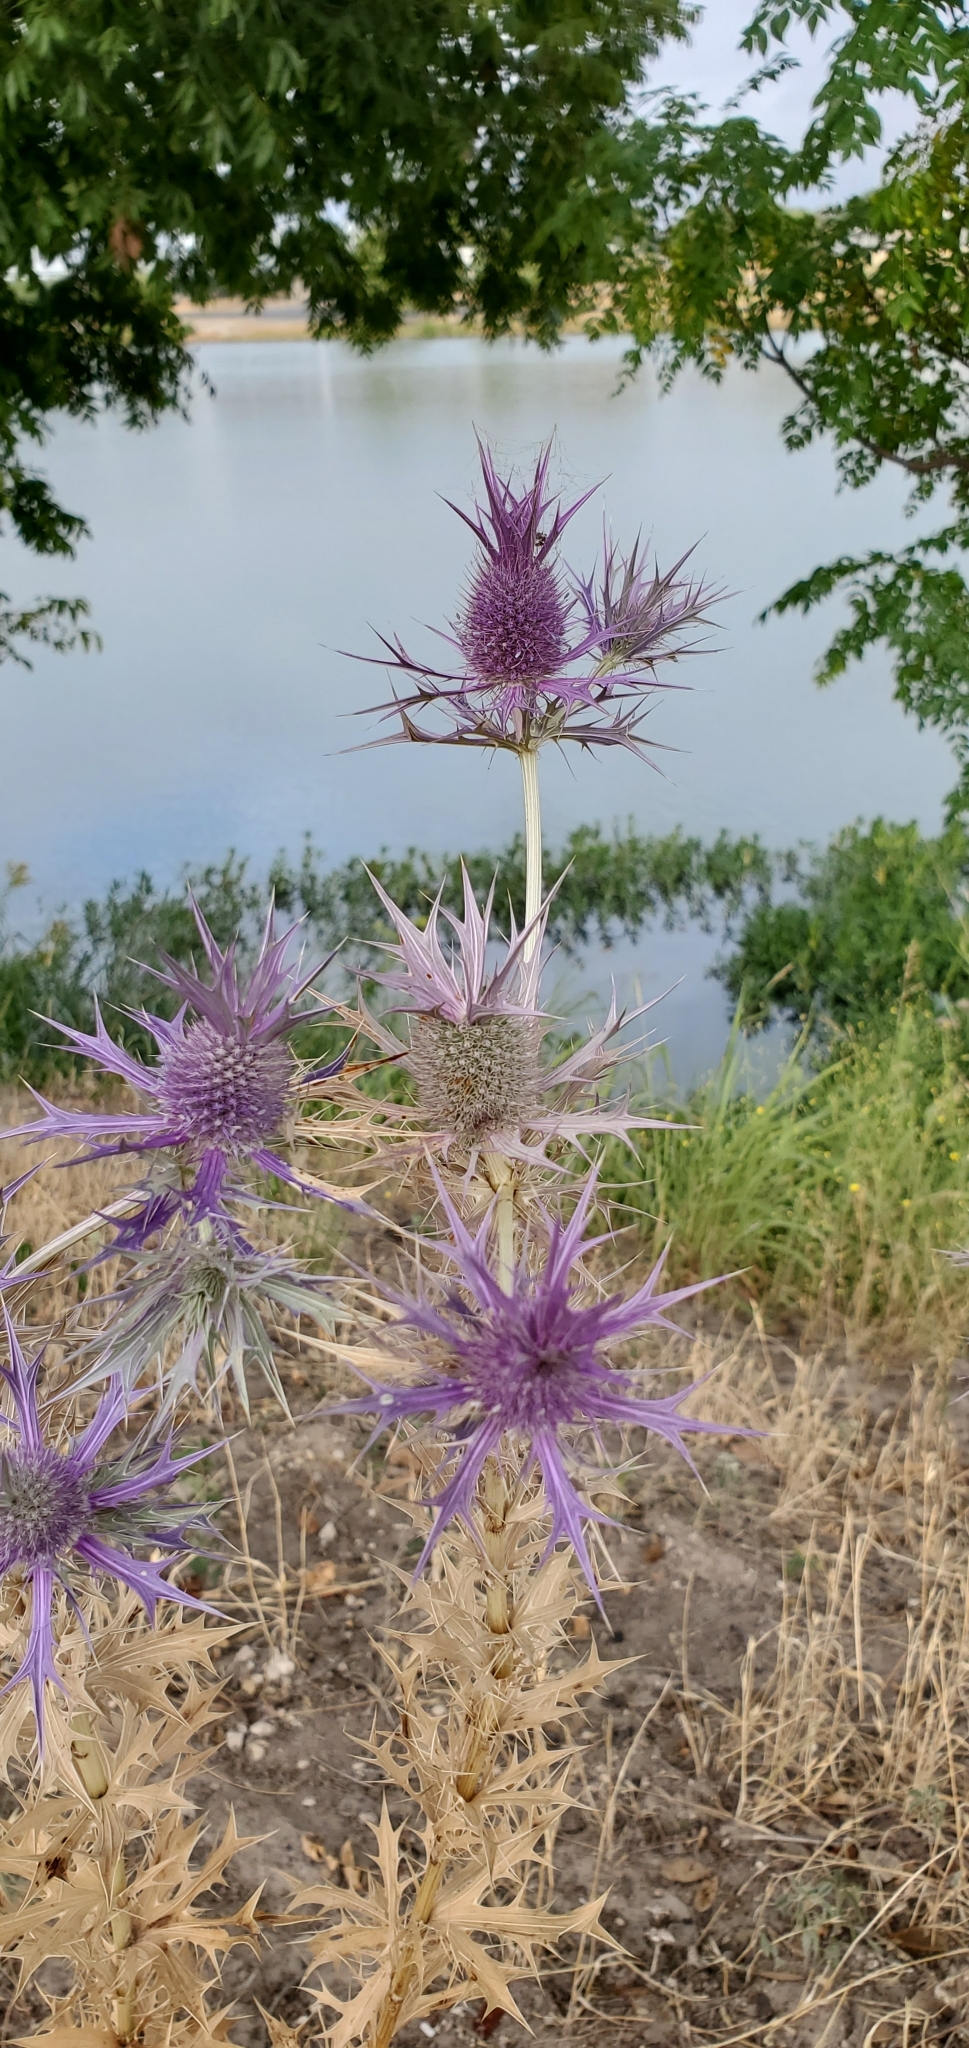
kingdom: Plantae
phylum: Tracheophyta
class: Magnoliopsida
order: Apiales
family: Apiaceae
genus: Eryngium
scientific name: Eryngium leavenworthii
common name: Leavenworth's eryngo
